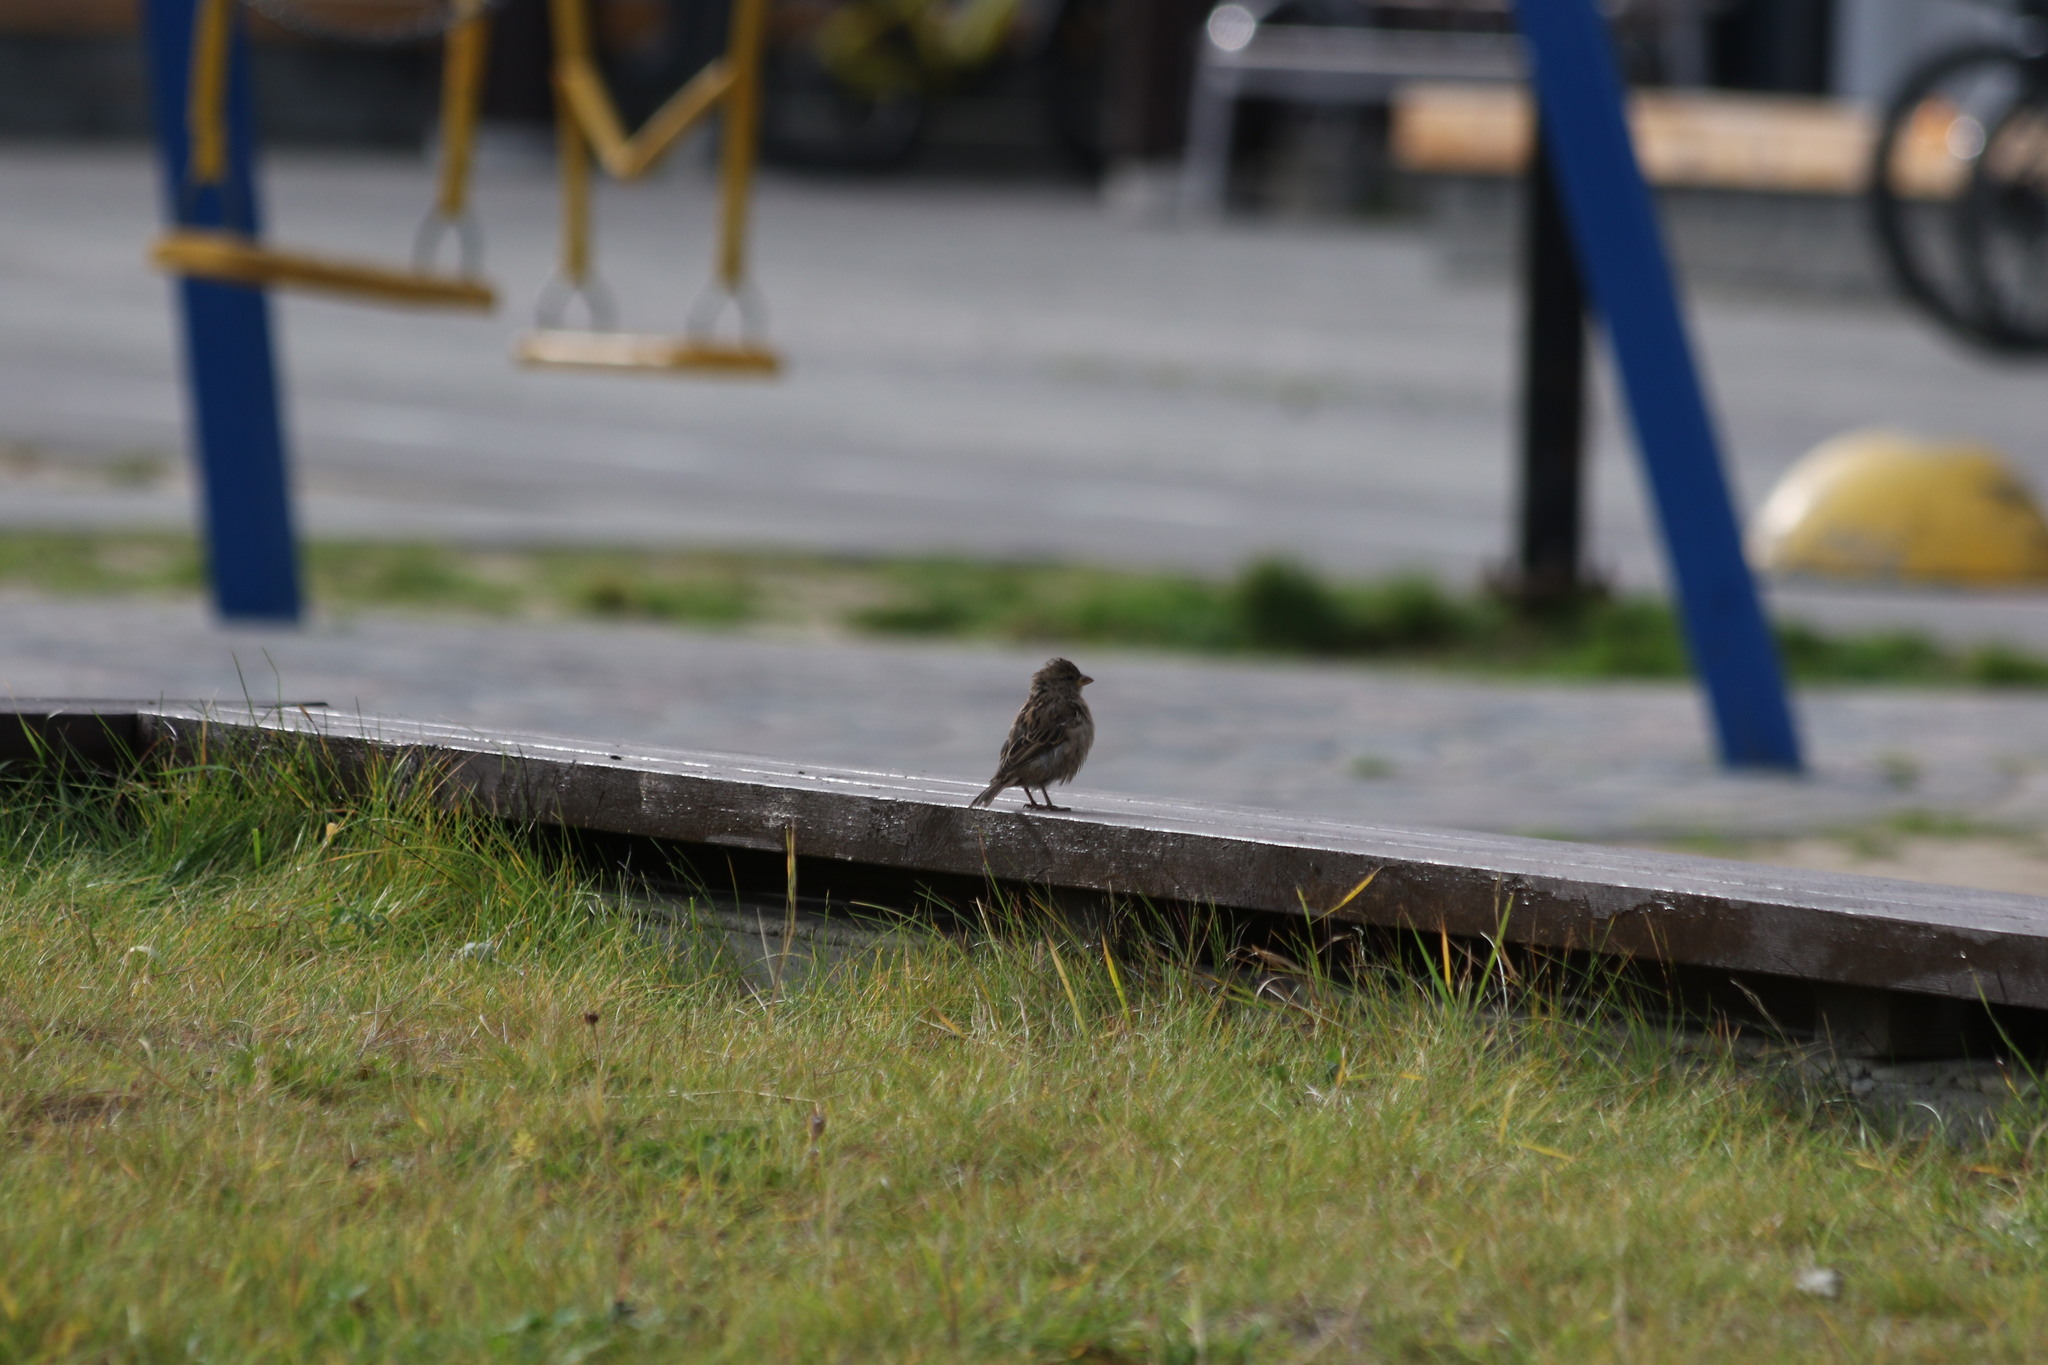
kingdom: Animalia
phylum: Chordata
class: Aves
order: Passeriformes
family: Passeridae
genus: Passer
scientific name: Passer domesticus
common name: House sparrow
